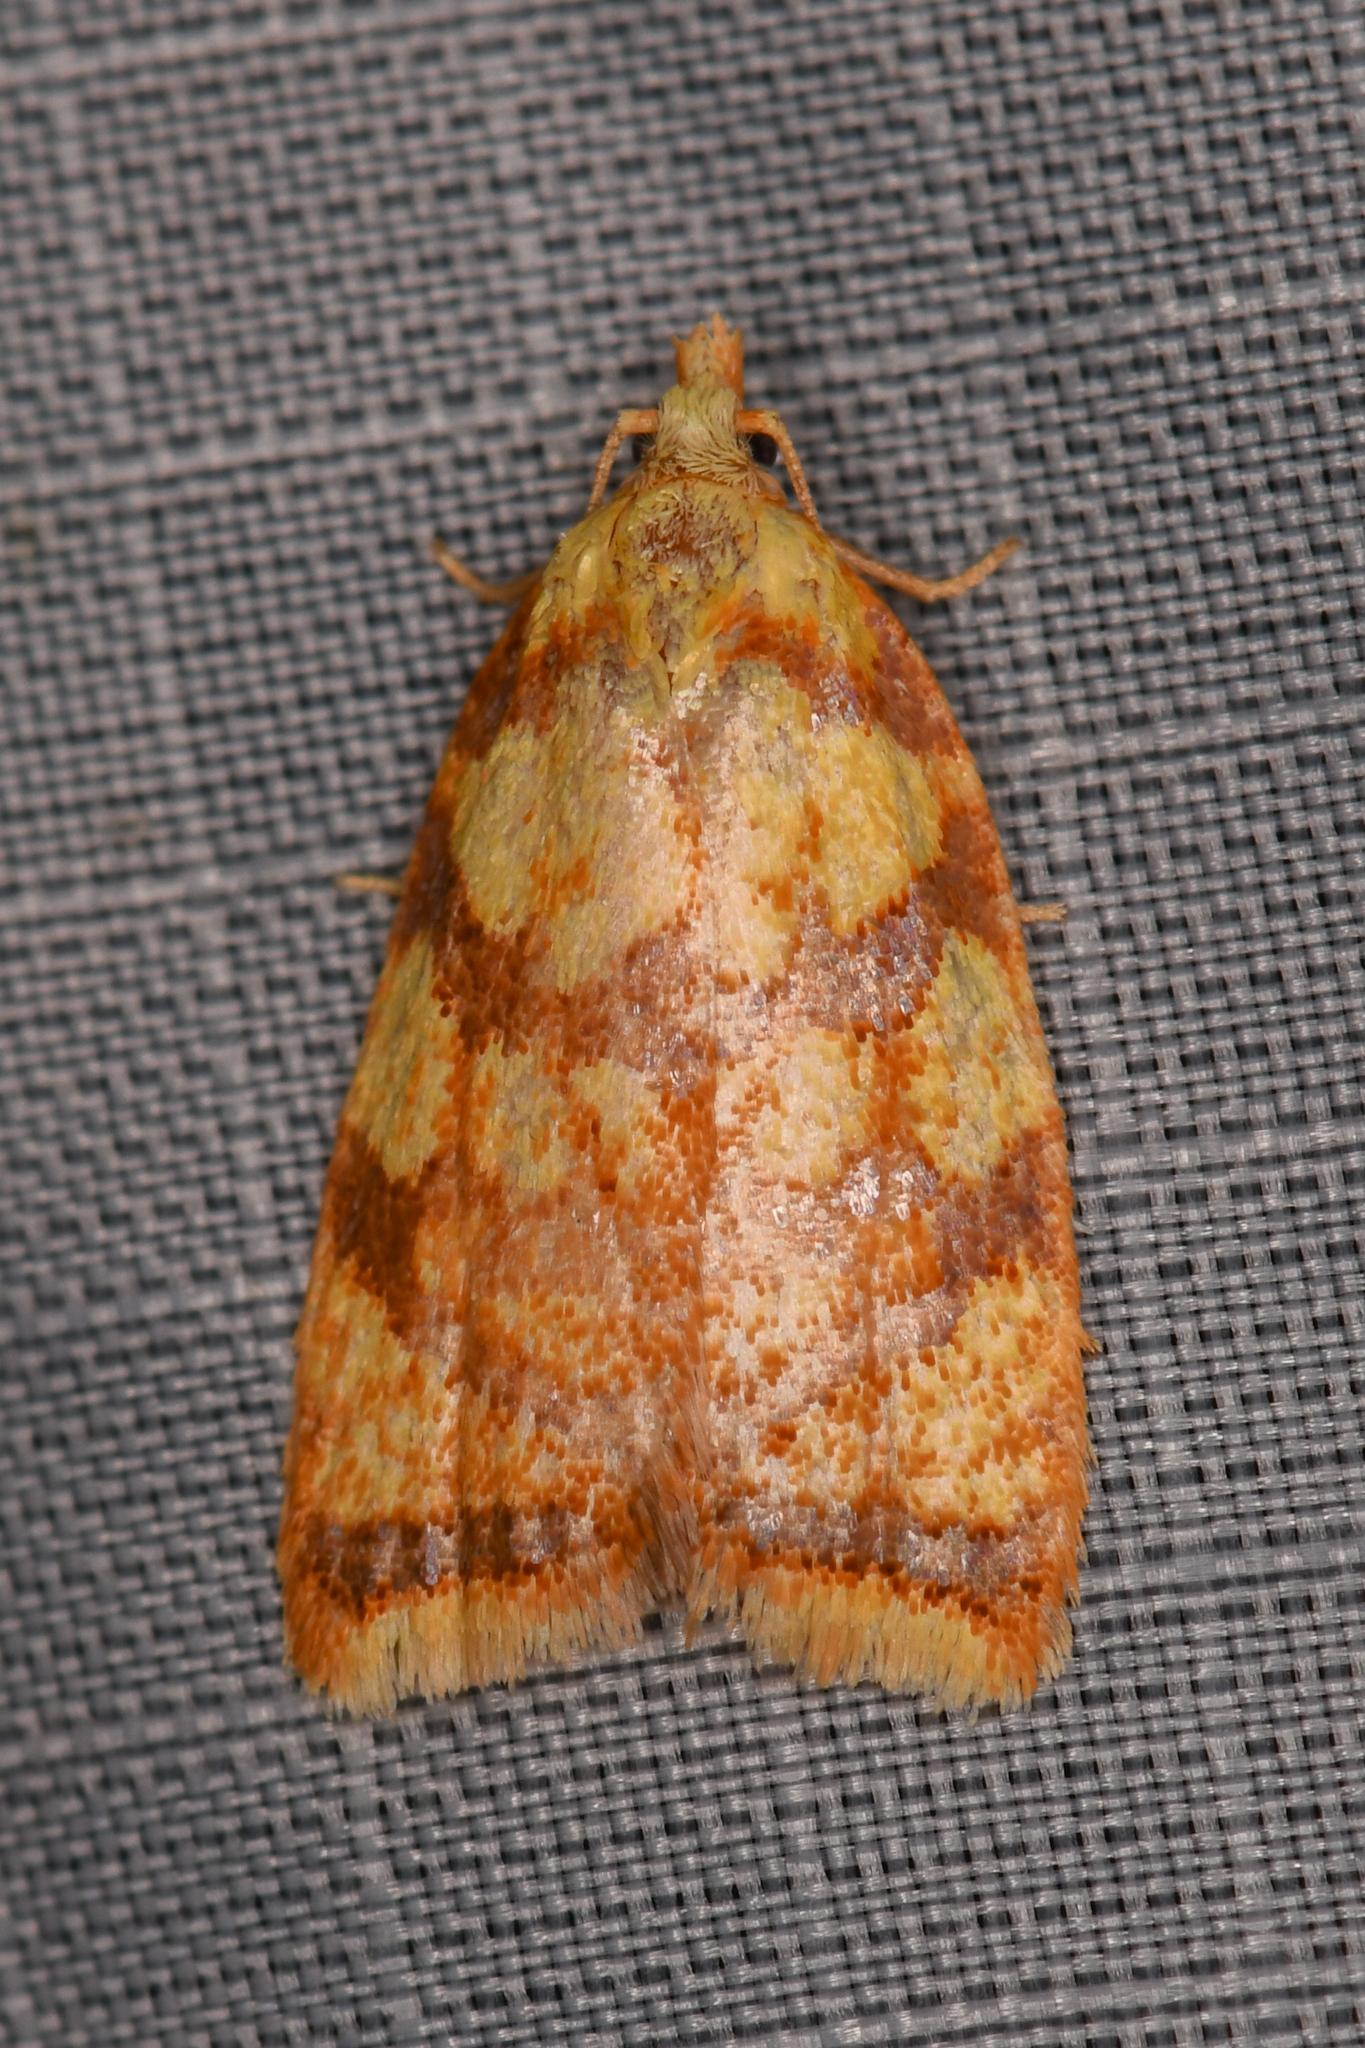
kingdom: Animalia
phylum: Arthropoda
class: Insecta
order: Lepidoptera
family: Tortricidae
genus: Acleris
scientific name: Acleris albicomana
